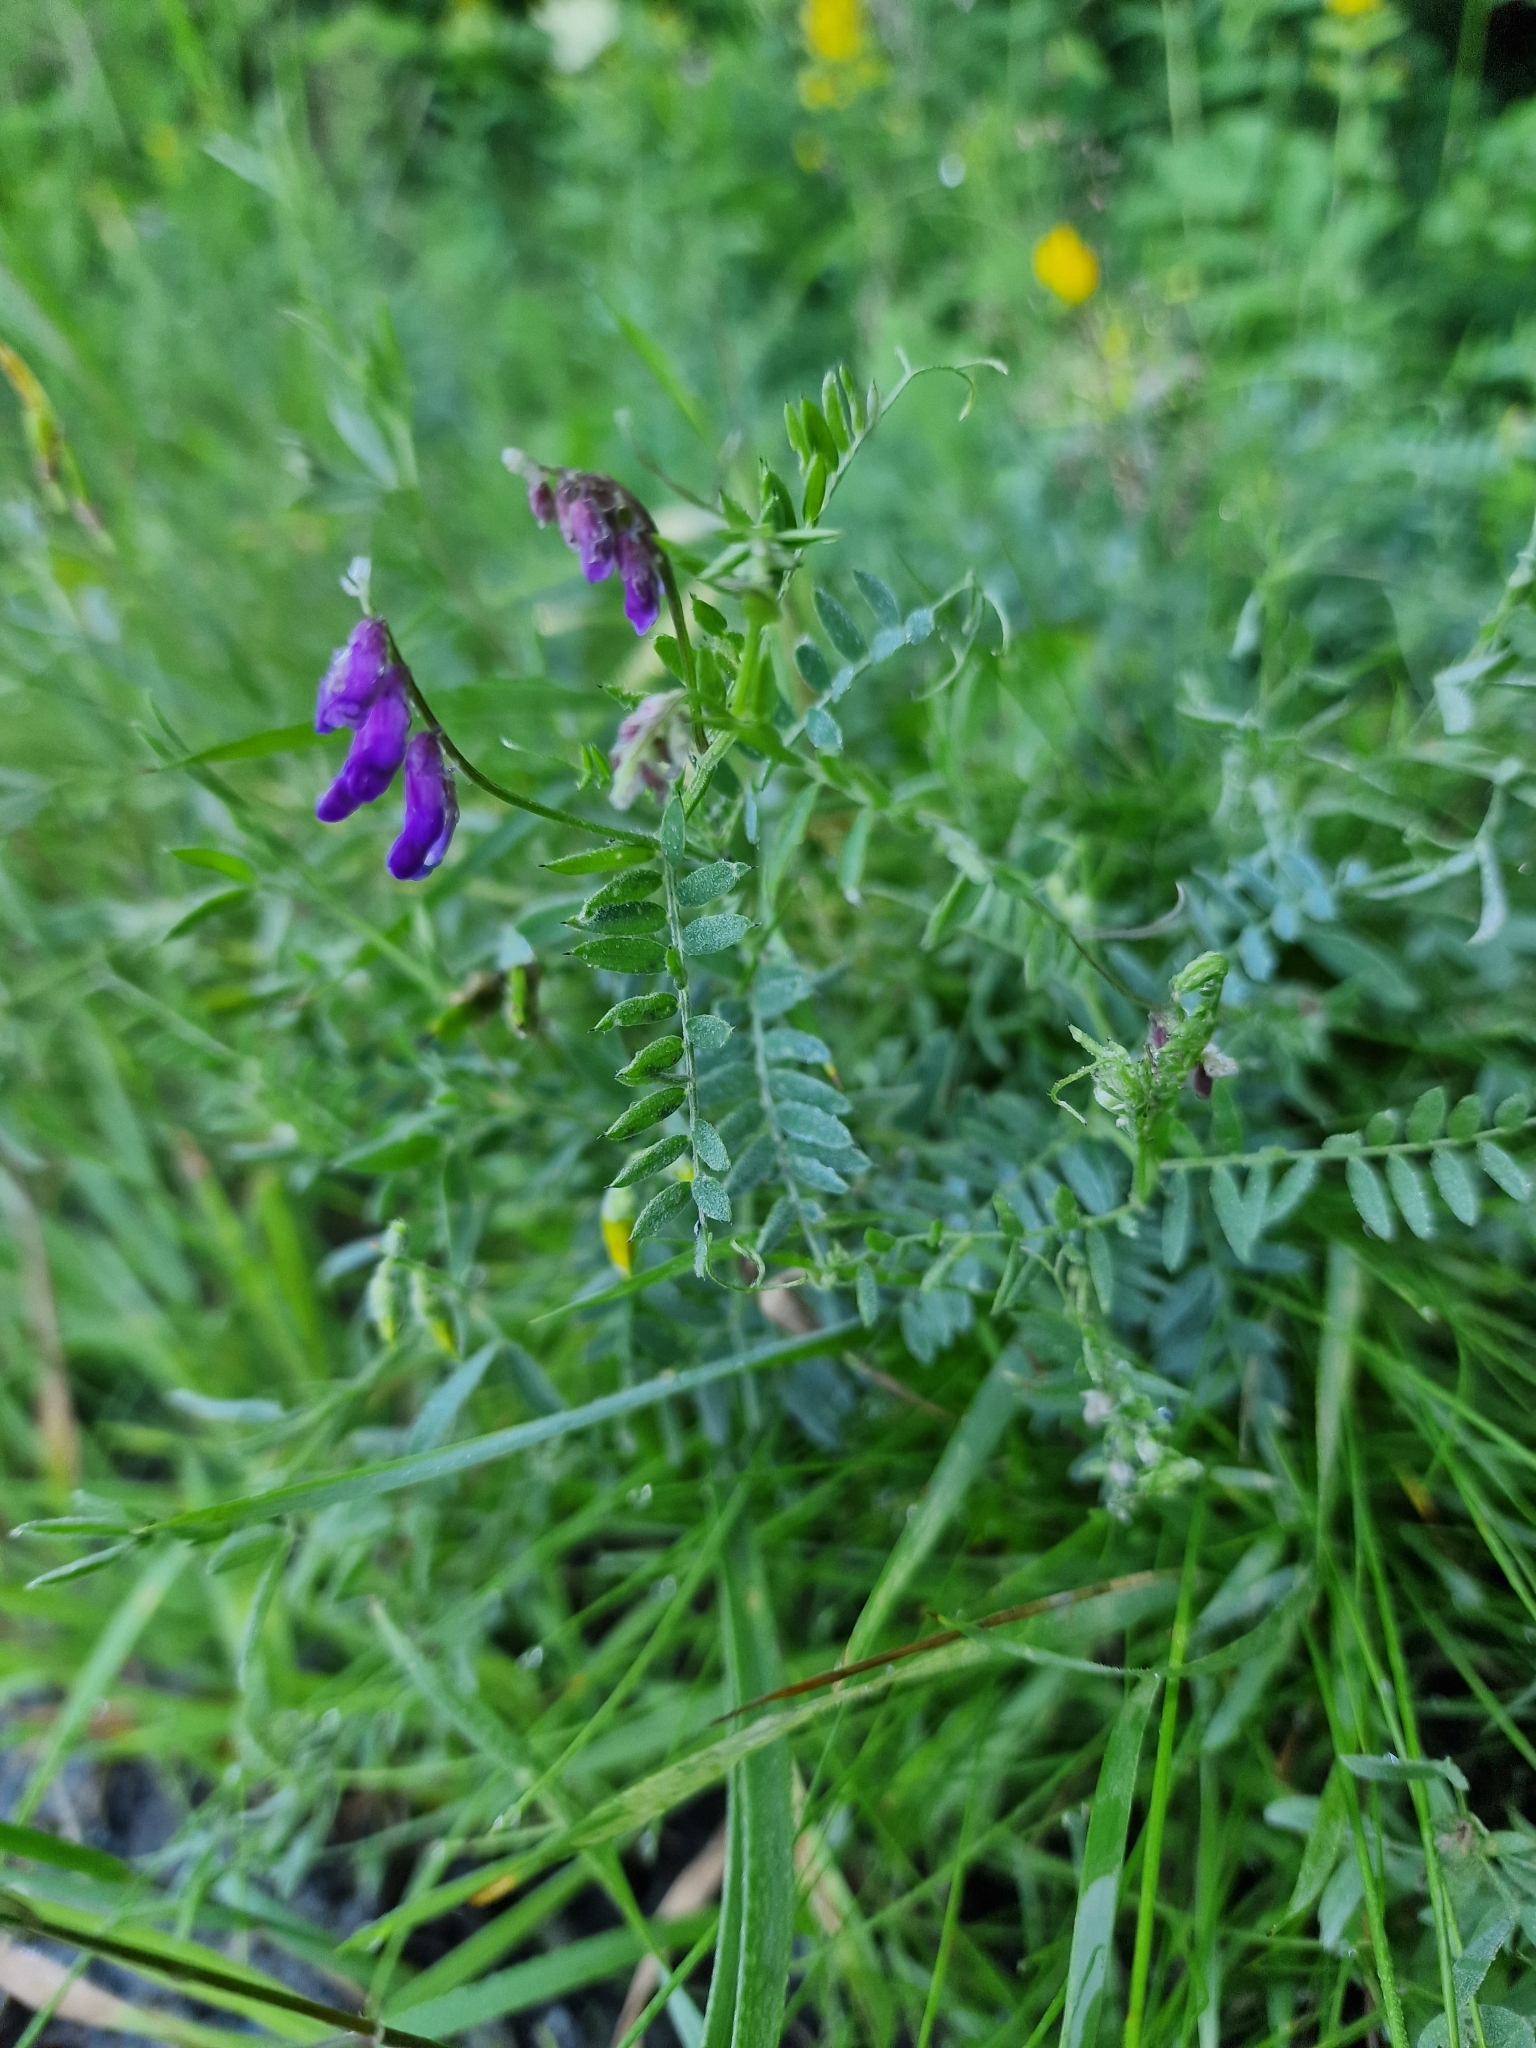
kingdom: Plantae
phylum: Tracheophyta
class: Magnoliopsida
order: Fabales
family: Fabaceae
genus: Vicia
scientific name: Vicia cracca
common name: Bird vetch
